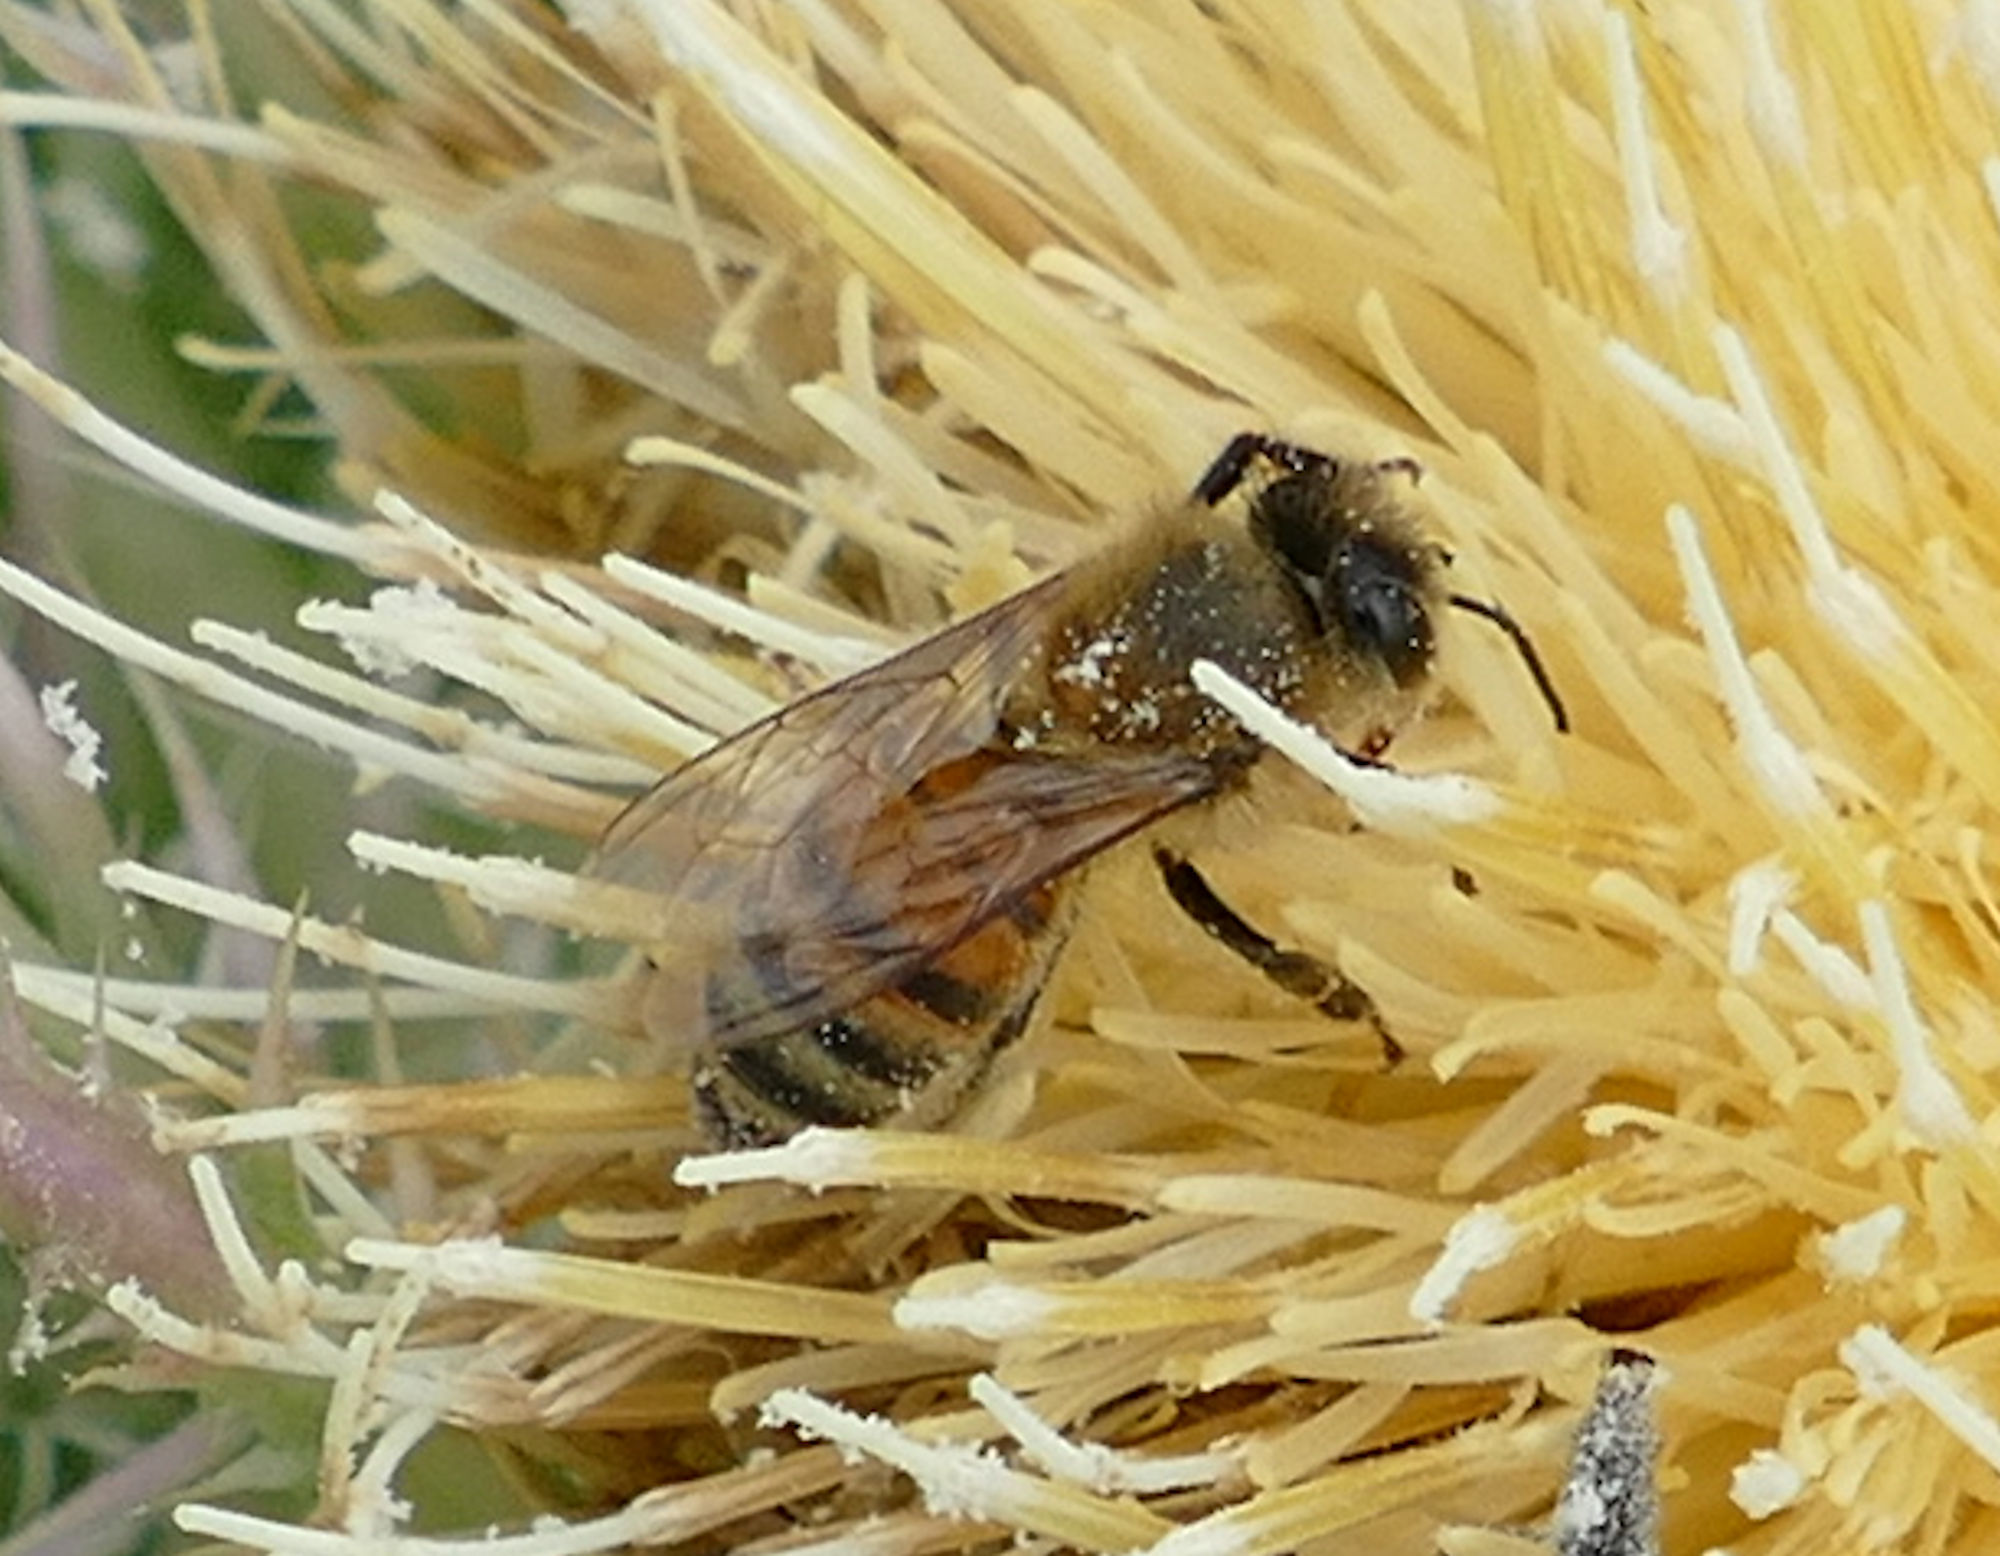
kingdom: Animalia
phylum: Arthropoda
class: Insecta
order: Hymenoptera
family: Apidae
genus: Apis
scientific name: Apis mellifera
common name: Honey bee
